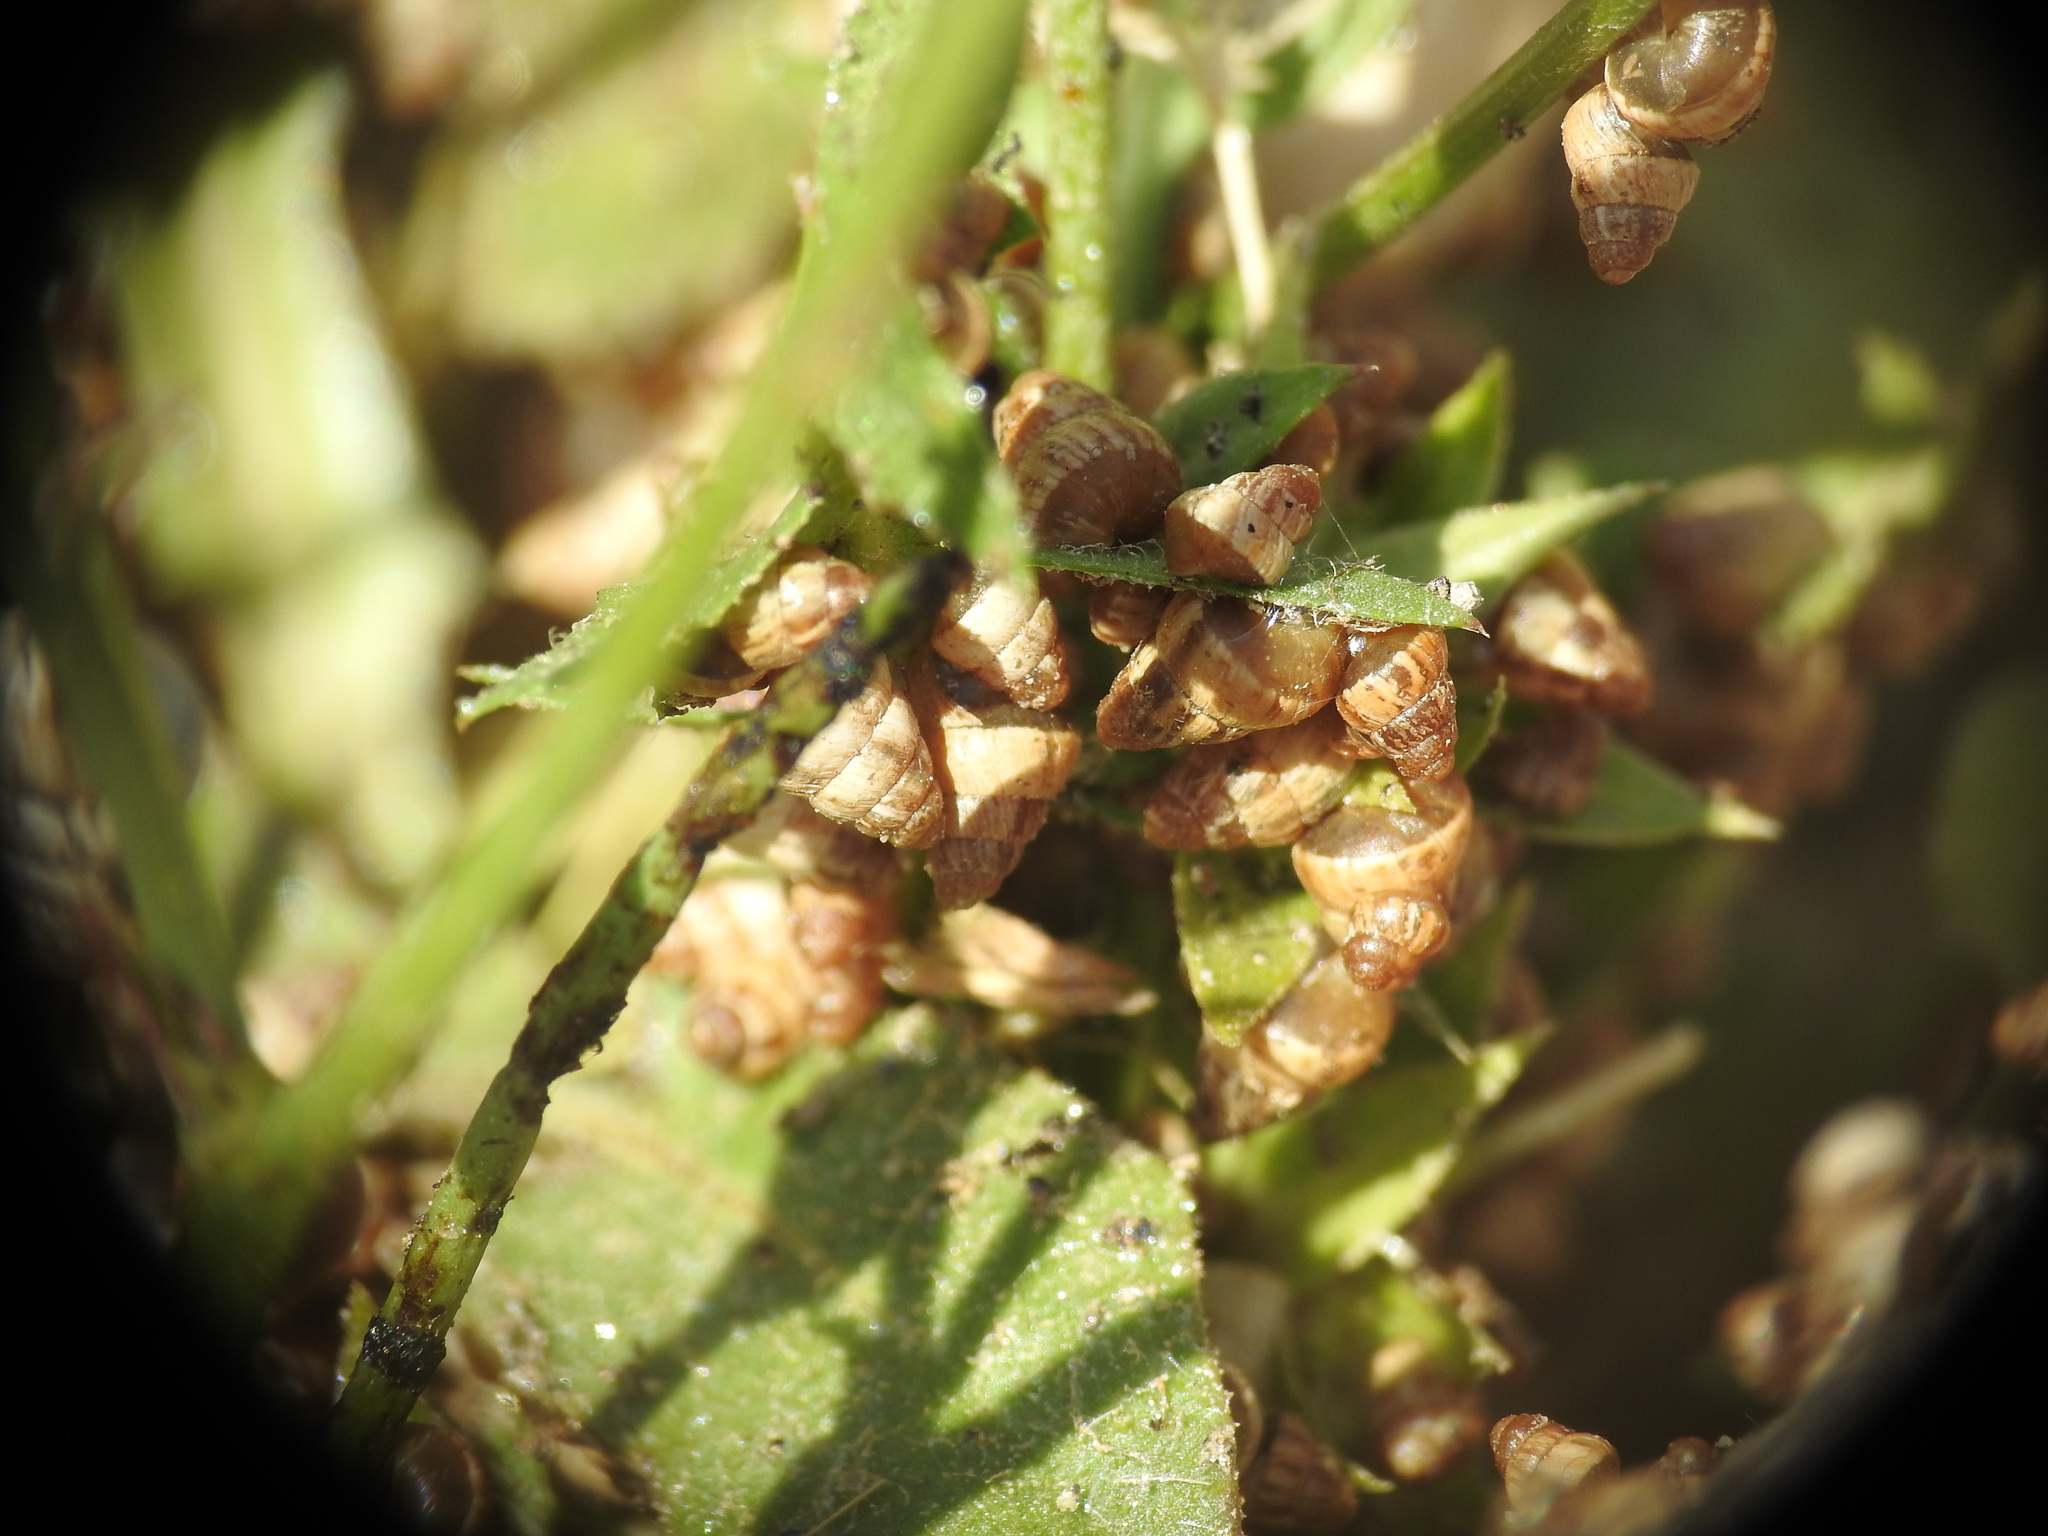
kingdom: Animalia
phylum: Mollusca
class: Gastropoda
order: Stylommatophora
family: Geomitridae
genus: Cochlicella
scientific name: Cochlicella barbara
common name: Potbellied helicellid
